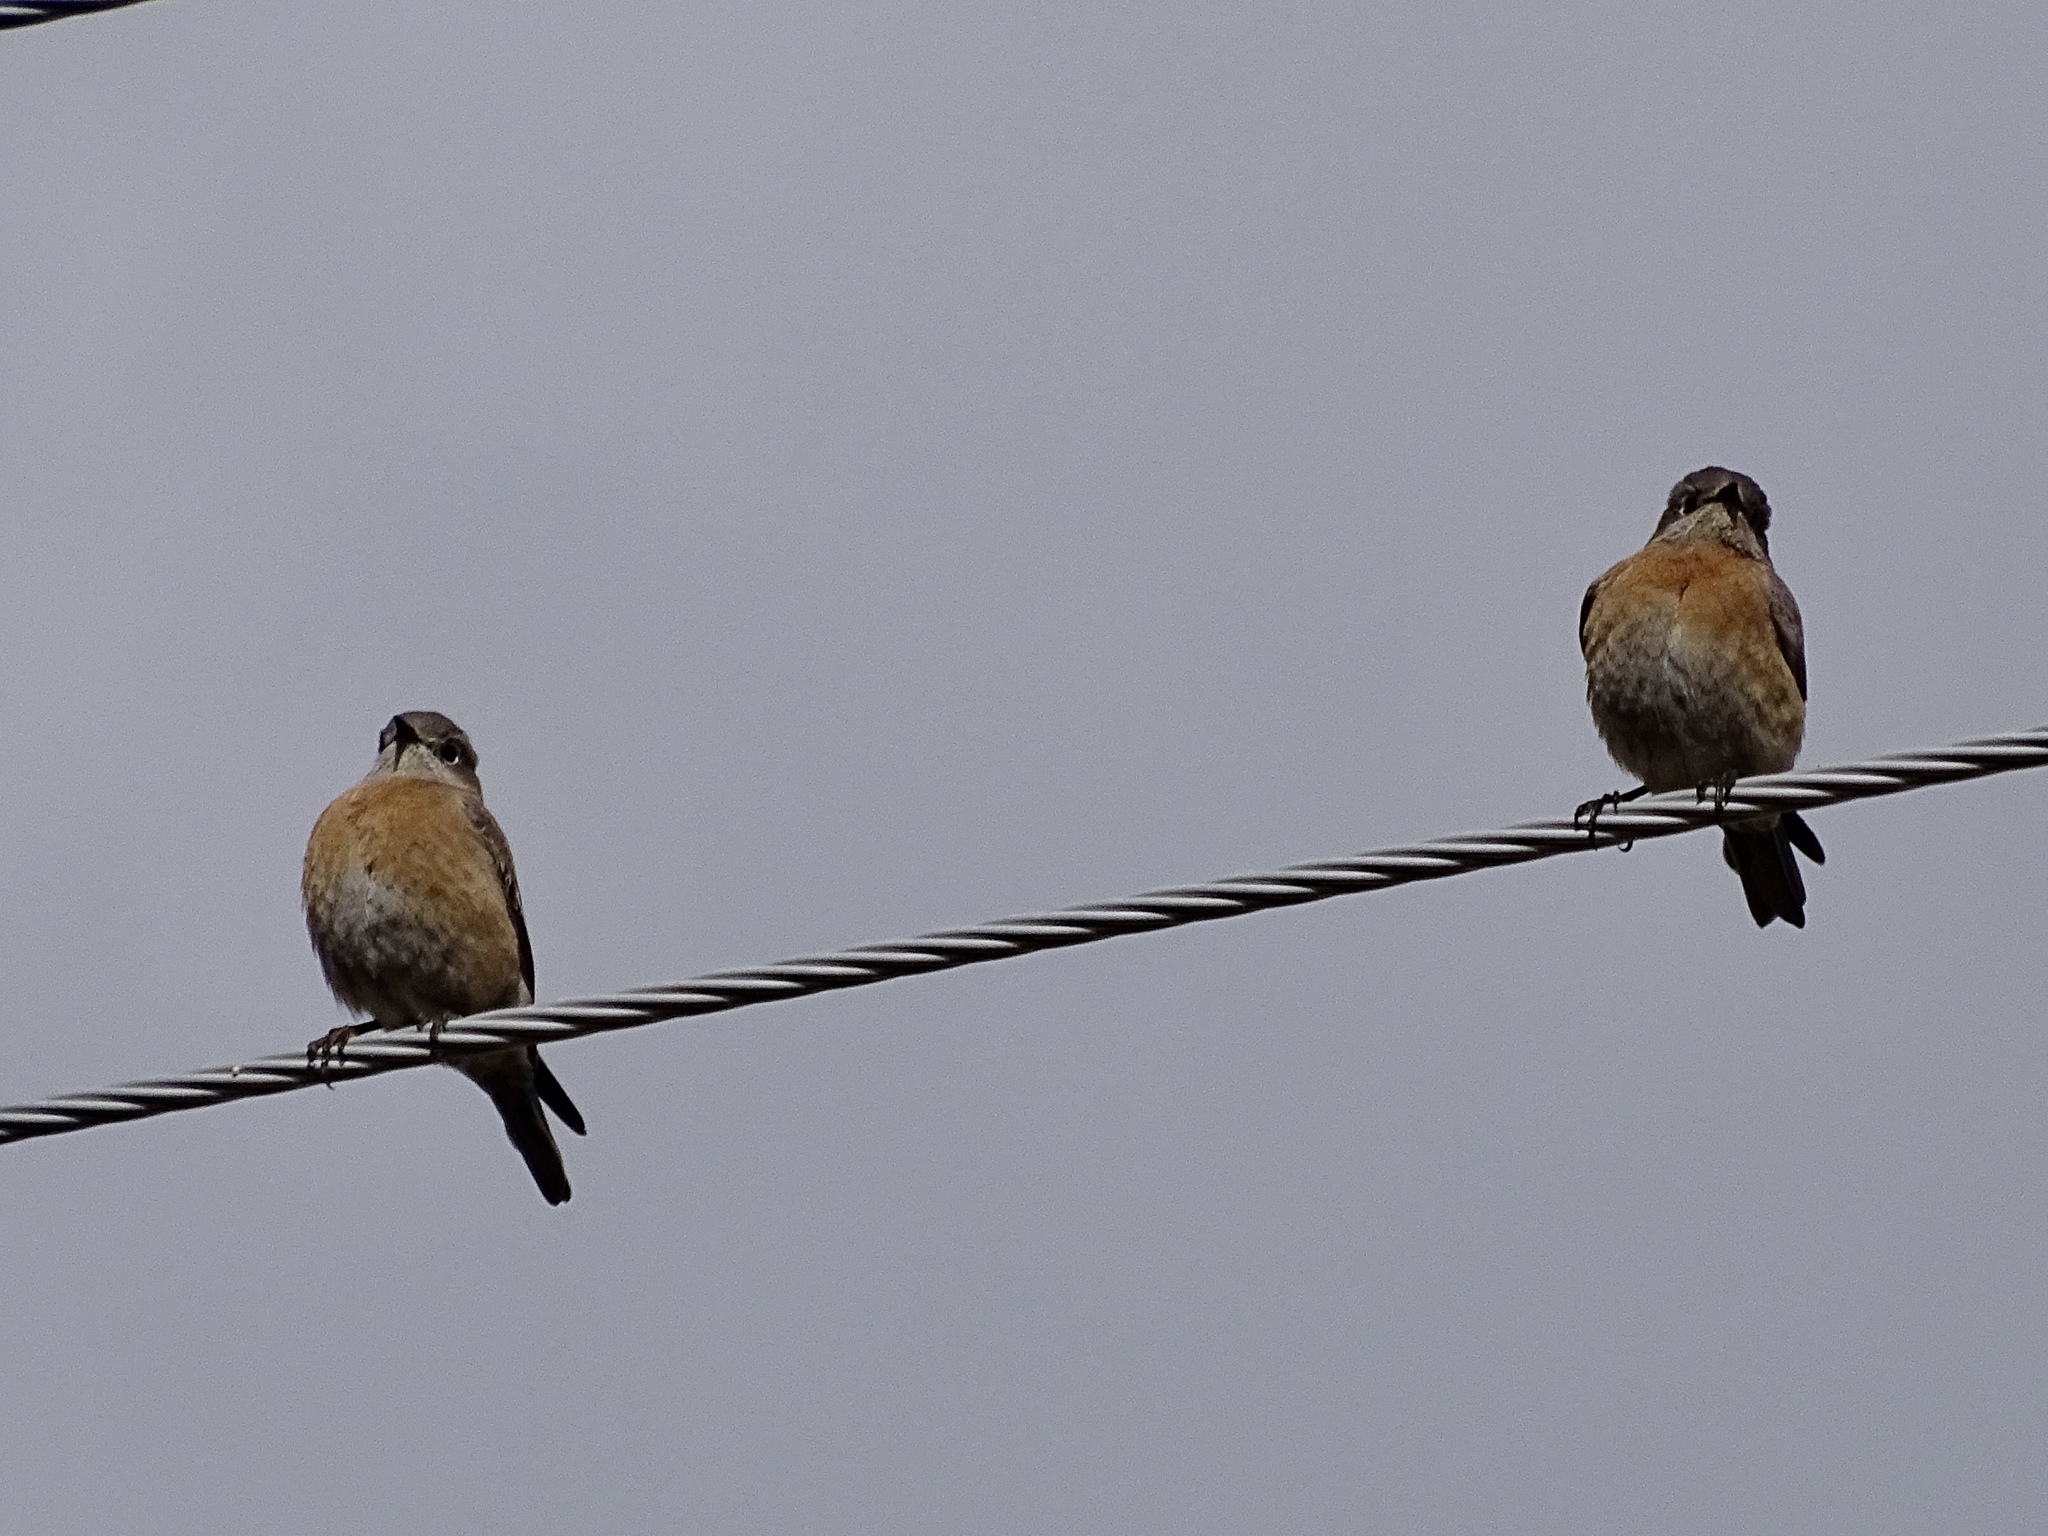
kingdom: Animalia
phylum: Chordata
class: Aves
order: Passeriformes
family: Turdidae
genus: Sialia
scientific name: Sialia mexicana
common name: Western bluebird
